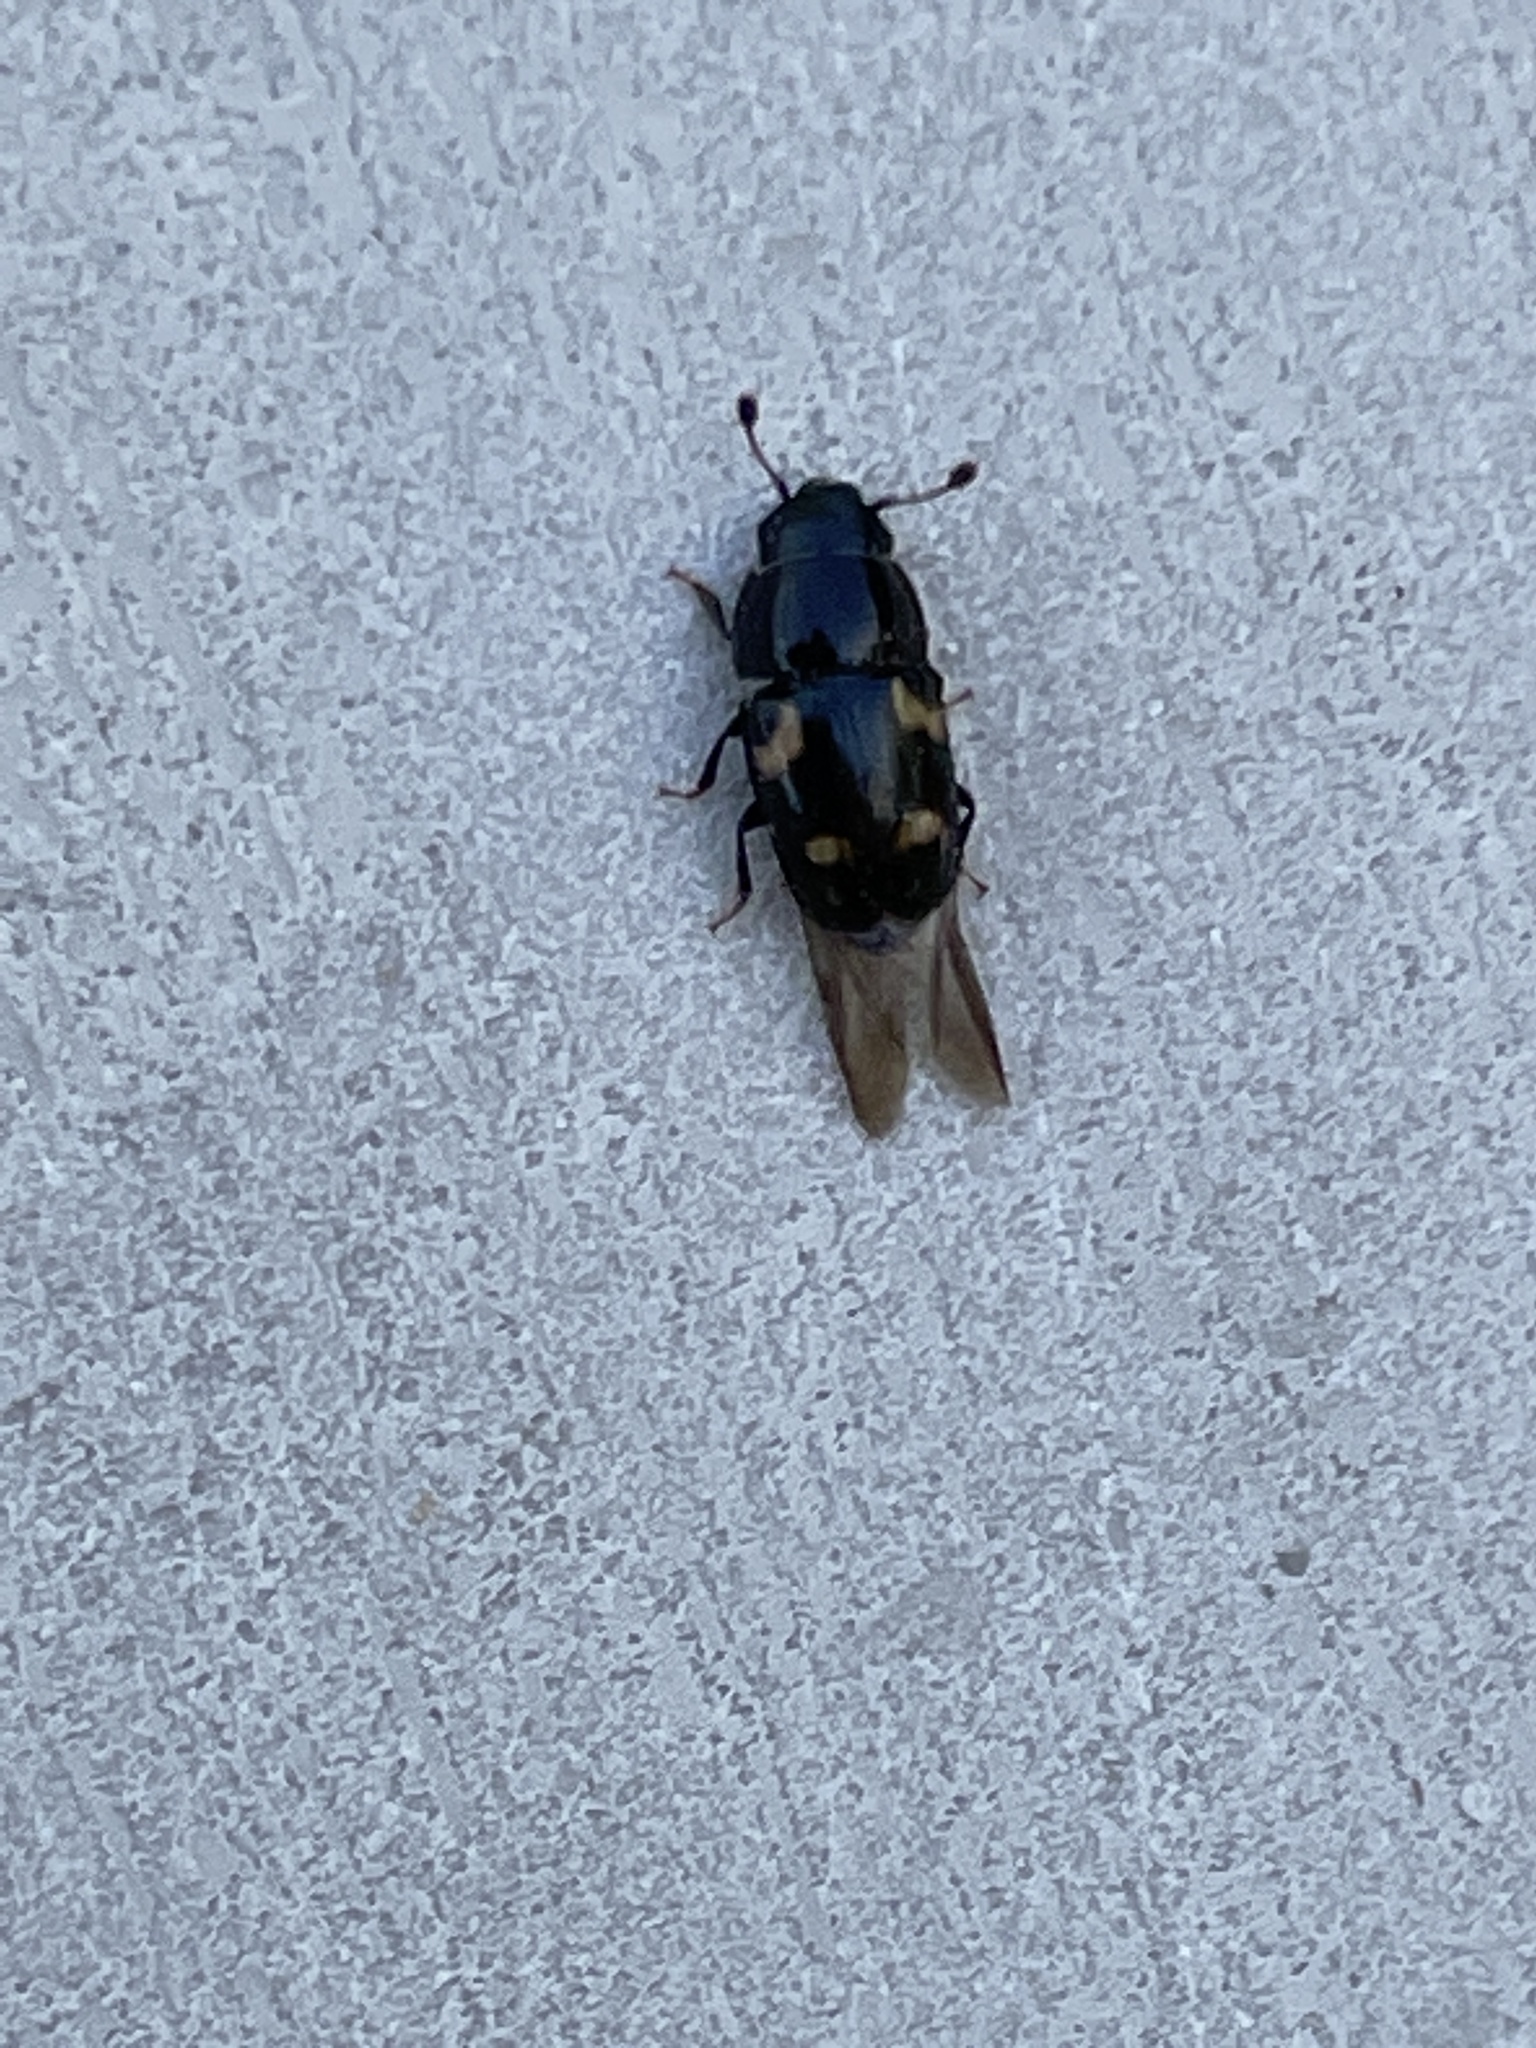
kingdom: Animalia
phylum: Arthropoda
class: Insecta
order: Coleoptera
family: Nitidulidae
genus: Glischrochilus
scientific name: Glischrochilus quadrisignatus
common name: Picnic beetle
